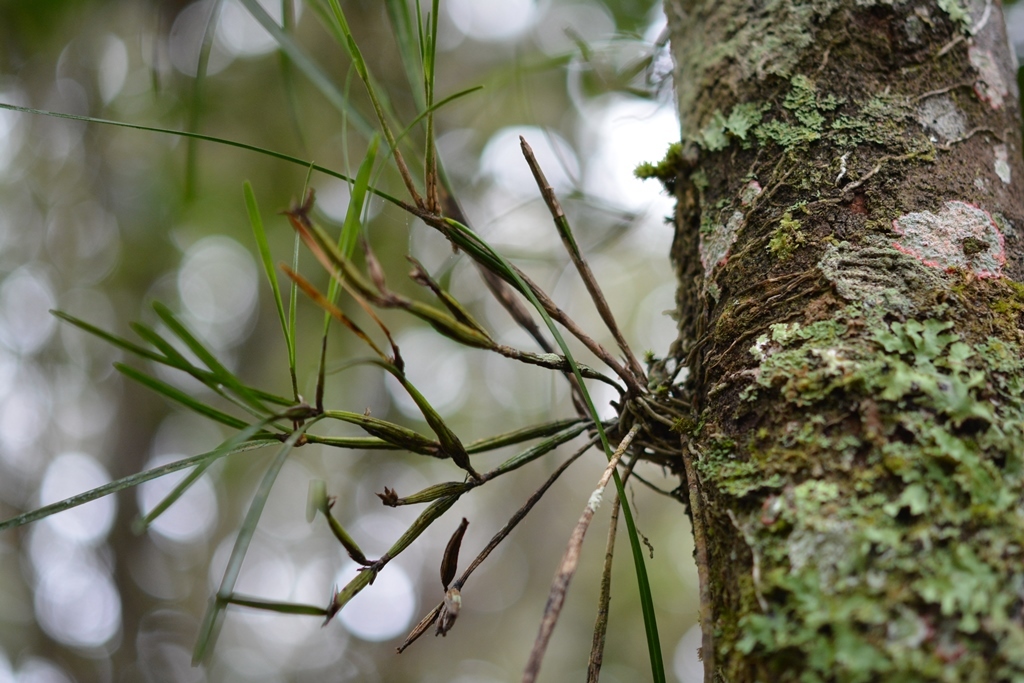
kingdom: Plantae
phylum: Tracheophyta
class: Liliopsida
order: Asparagales
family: Orchidaceae
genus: Scaphyglottis
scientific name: Scaphyglottis fasciculata
